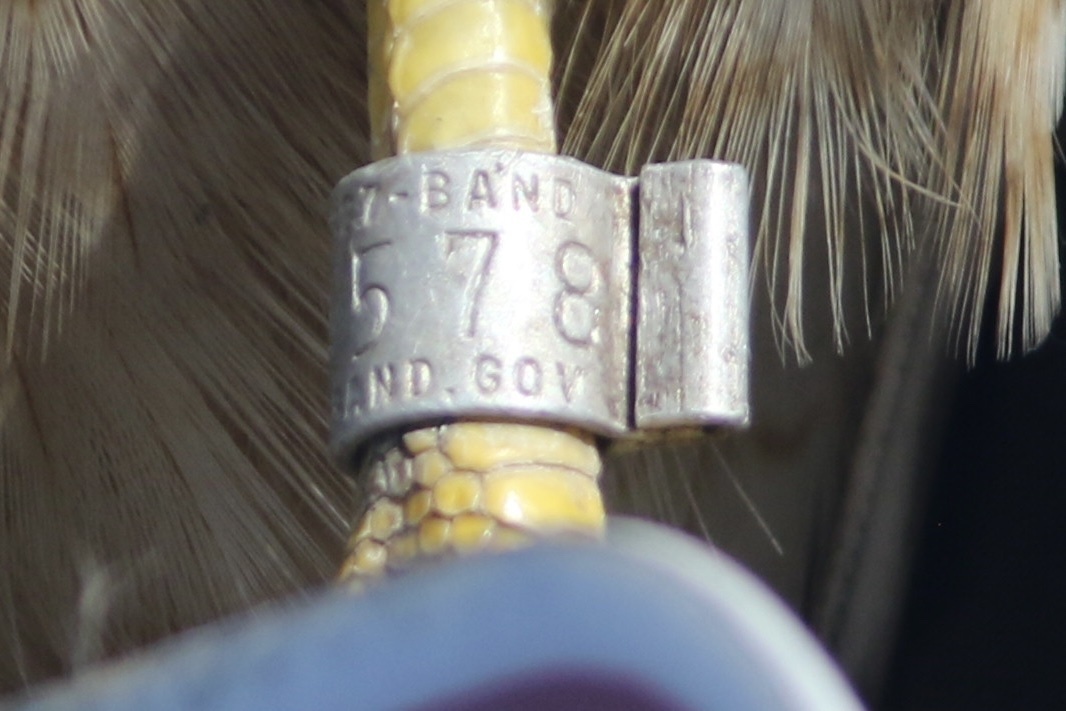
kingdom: Animalia
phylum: Chordata
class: Aves
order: Accipitriformes
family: Accipitridae
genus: Buteo
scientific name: Buteo jamaicensis
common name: Red-tailed hawk
